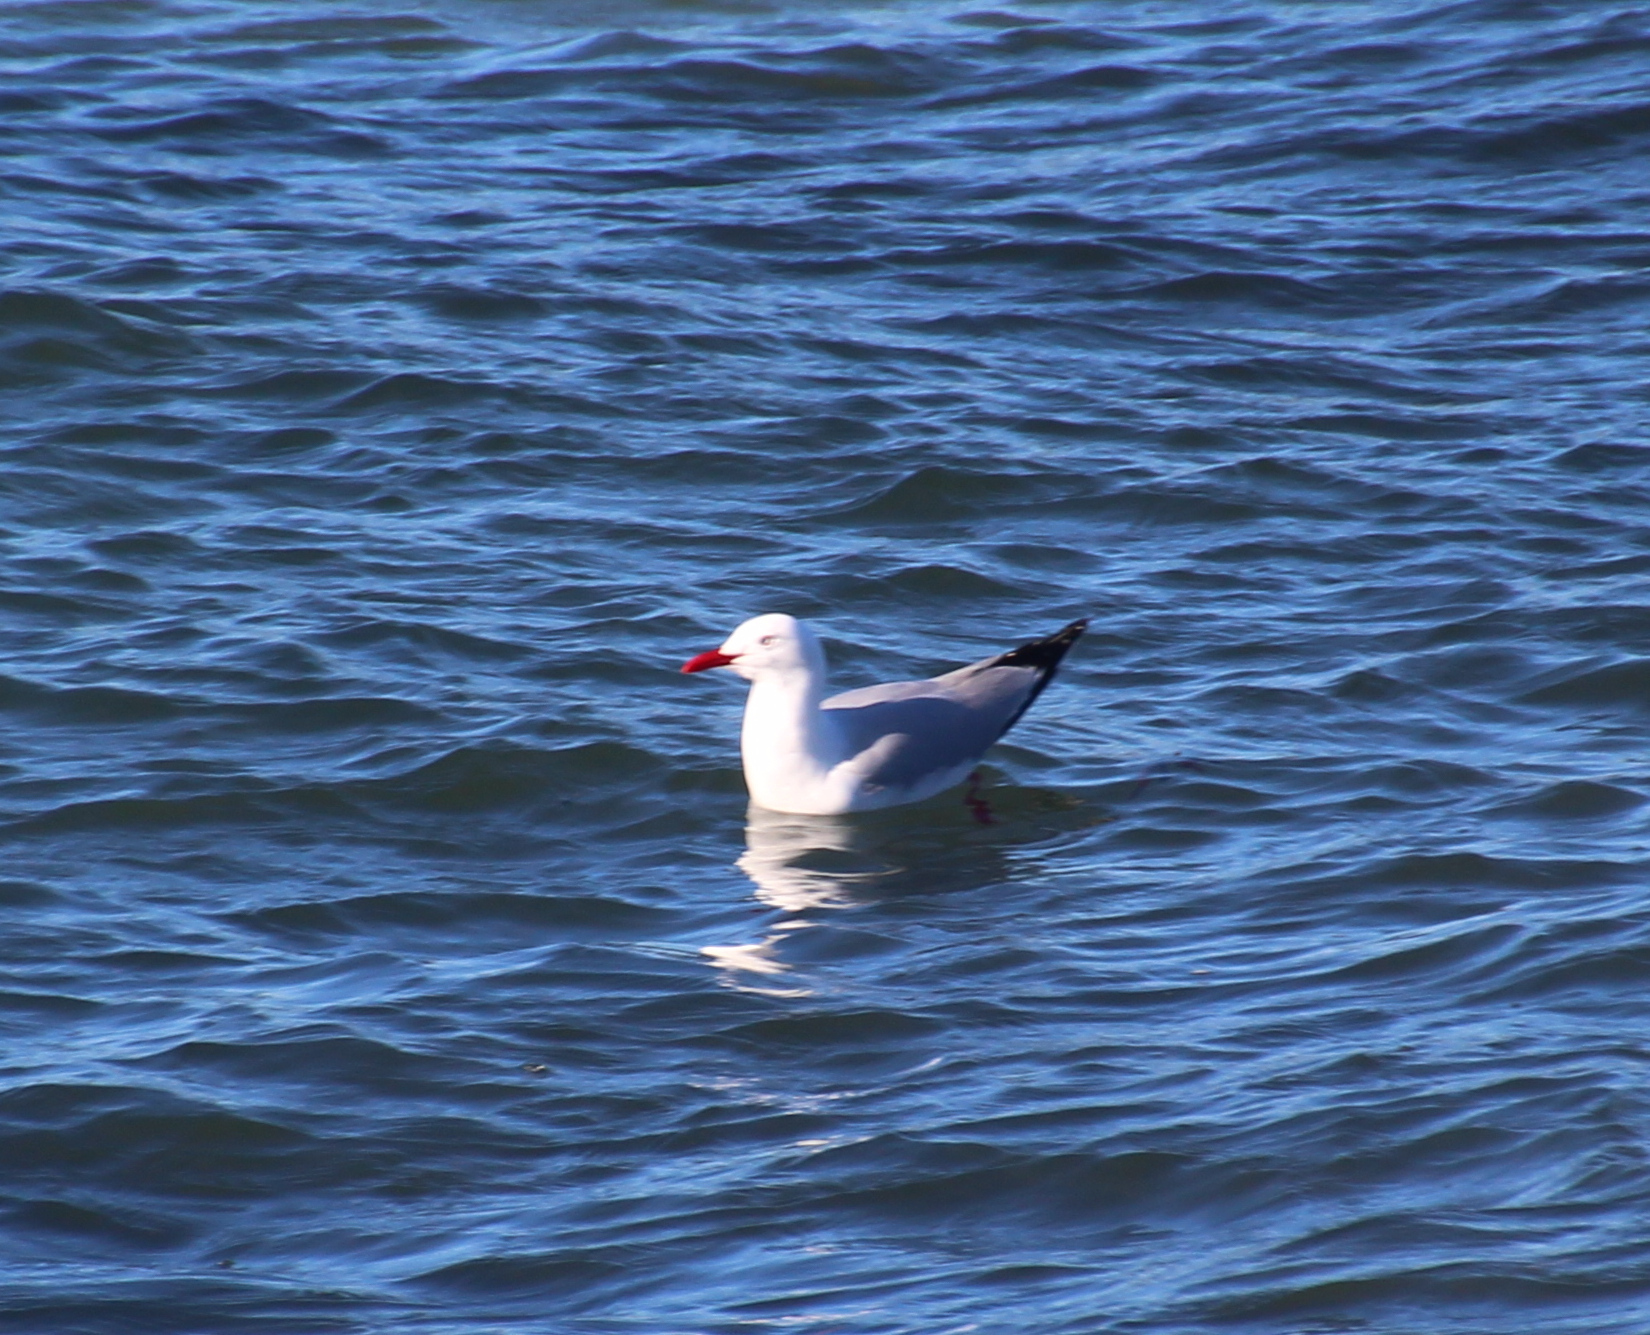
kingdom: Animalia
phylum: Chordata
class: Aves
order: Charadriiformes
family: Laridae
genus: Chroicocephalus
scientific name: Chroicocephalus novaehollandiae
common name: Silver gull
